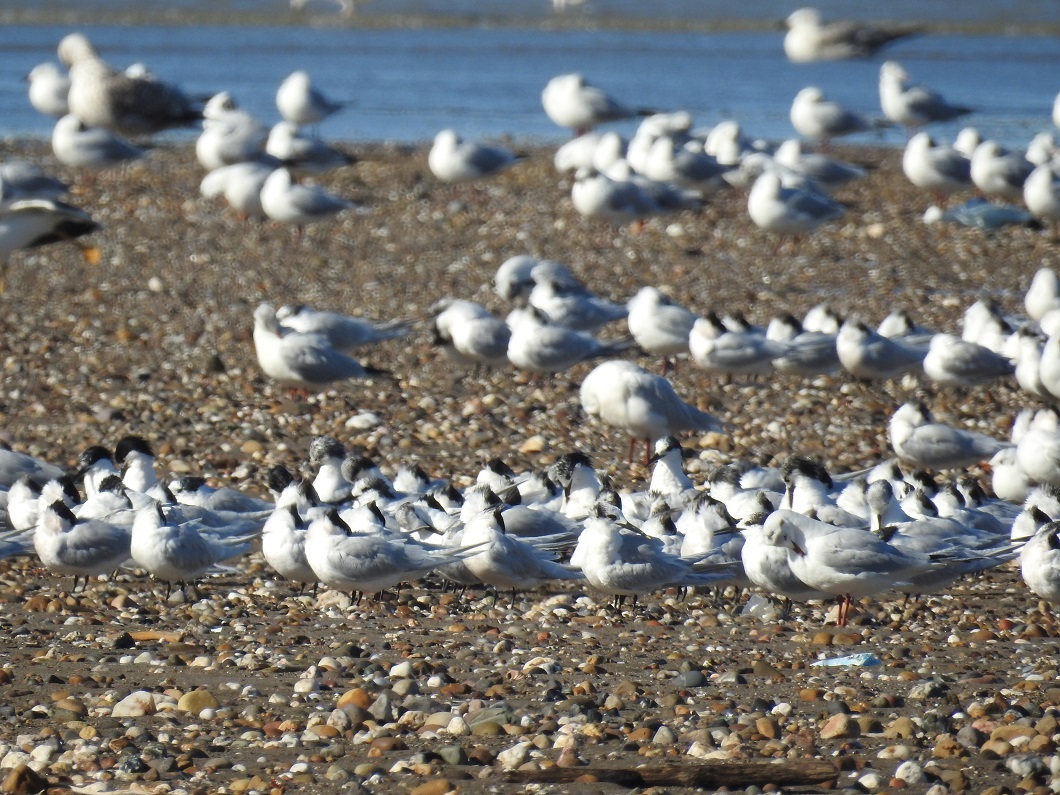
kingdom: Animalia
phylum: Chordata
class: Aves
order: Charadriiformes
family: Laridae
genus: Thalasseus
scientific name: Thalasseus sandvicensis
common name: Sandwich tern
